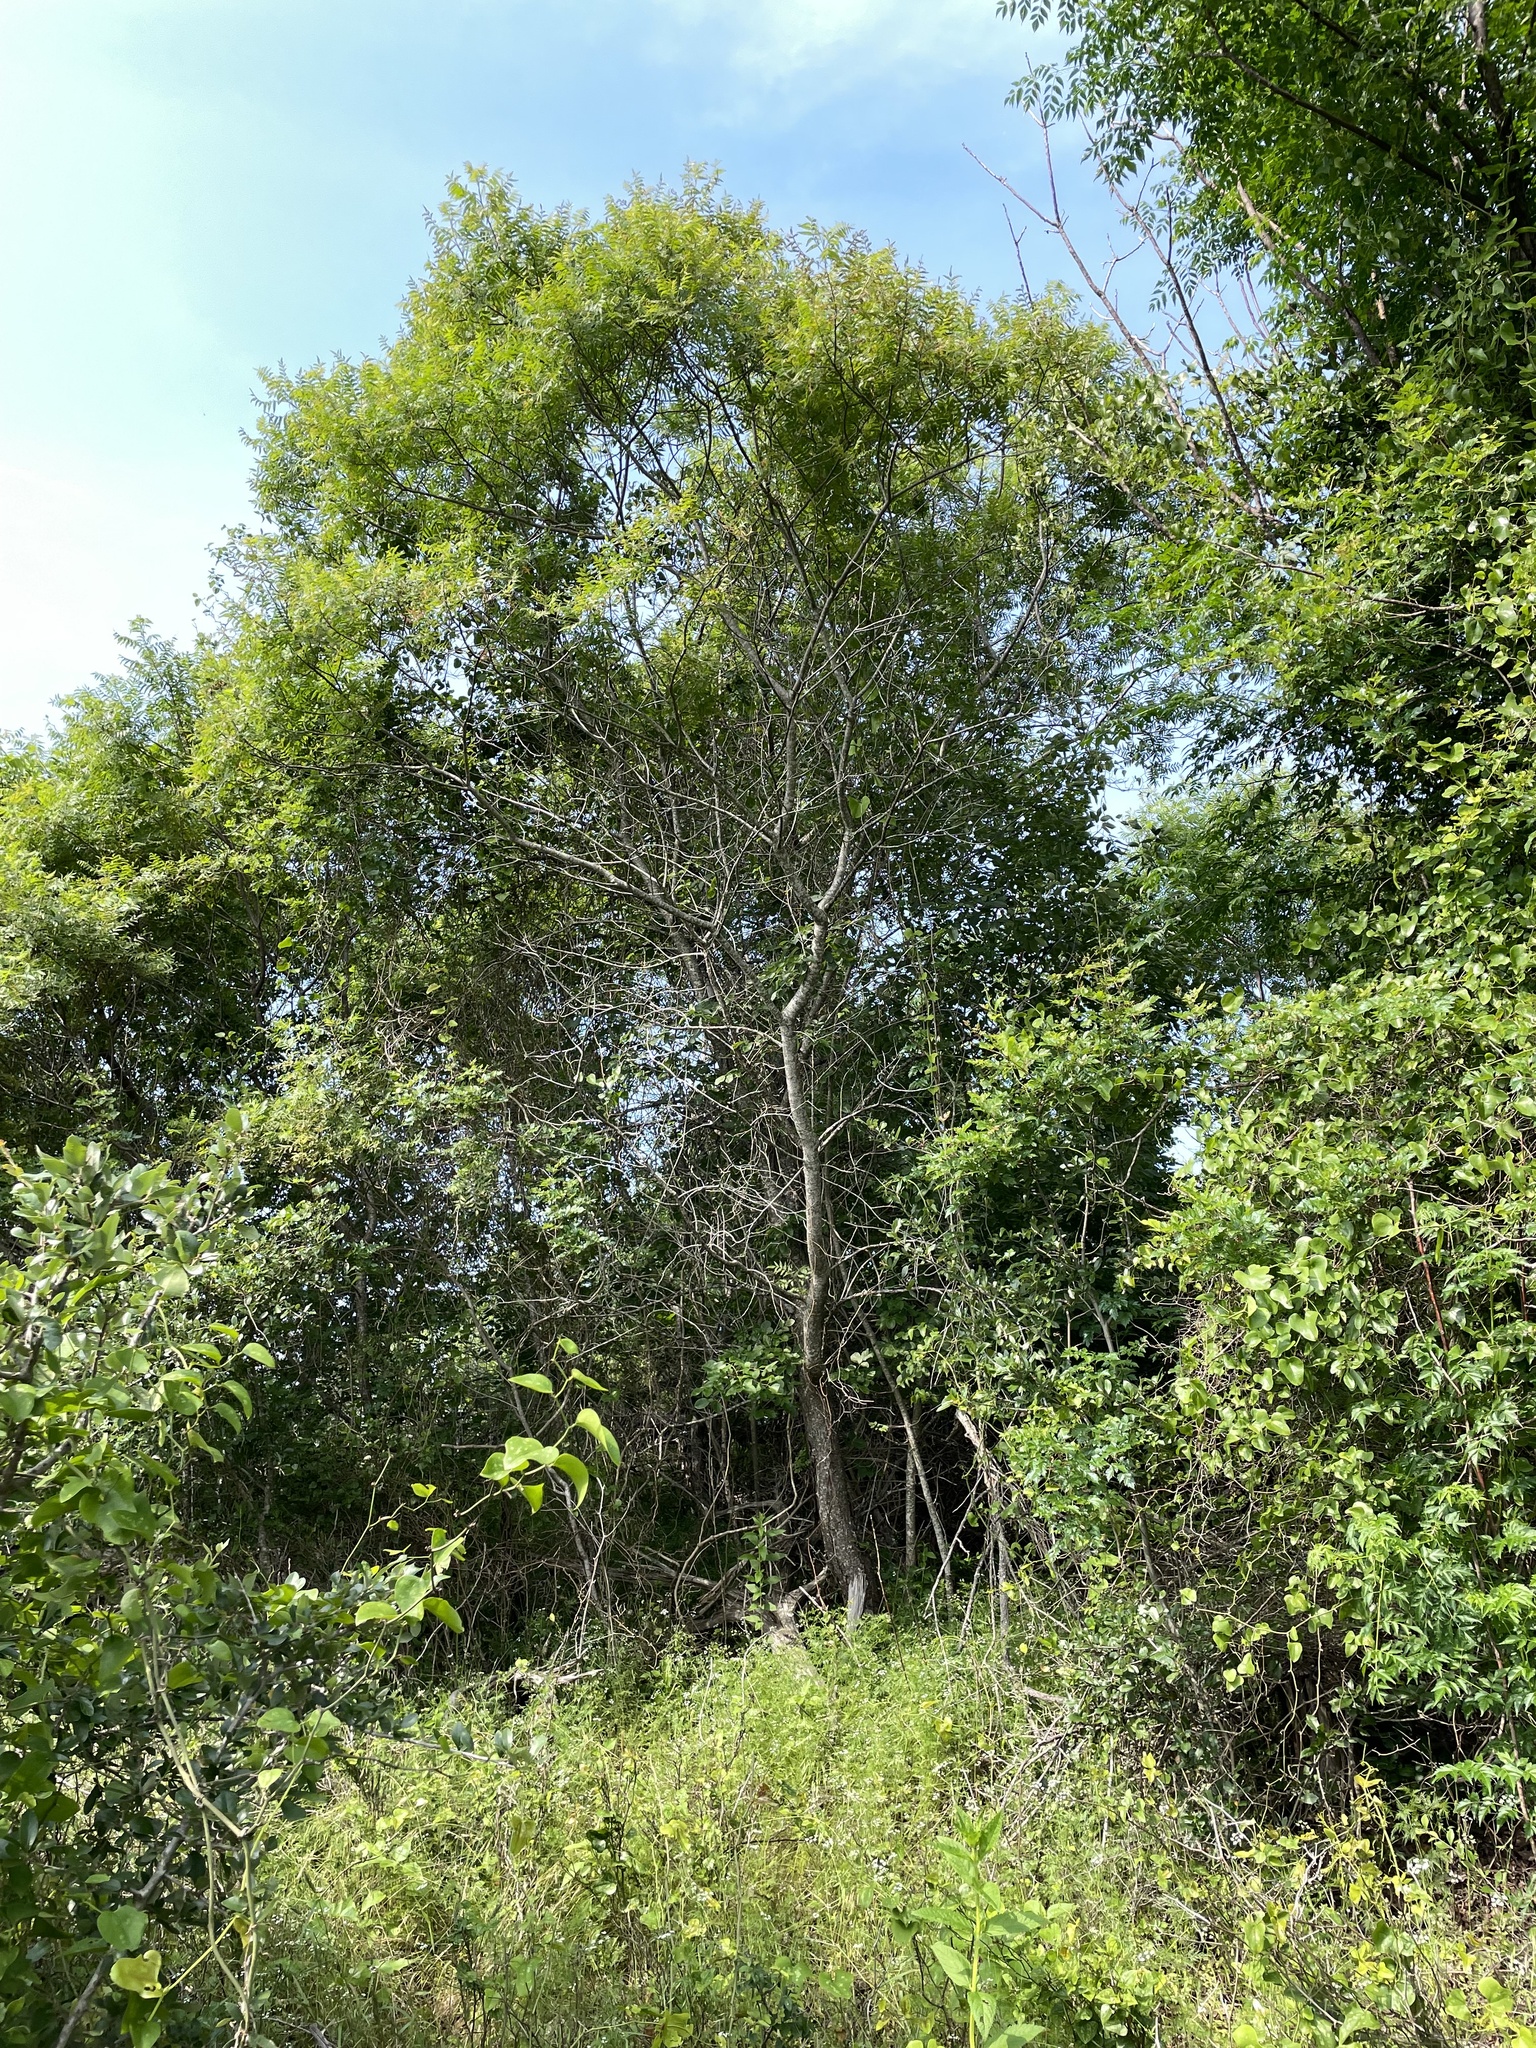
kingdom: Plantae
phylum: Tracheophyta
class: Magnoliopsida
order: Sapindales
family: Anacardiaceae
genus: Rhus
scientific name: Rhus lanceolata
